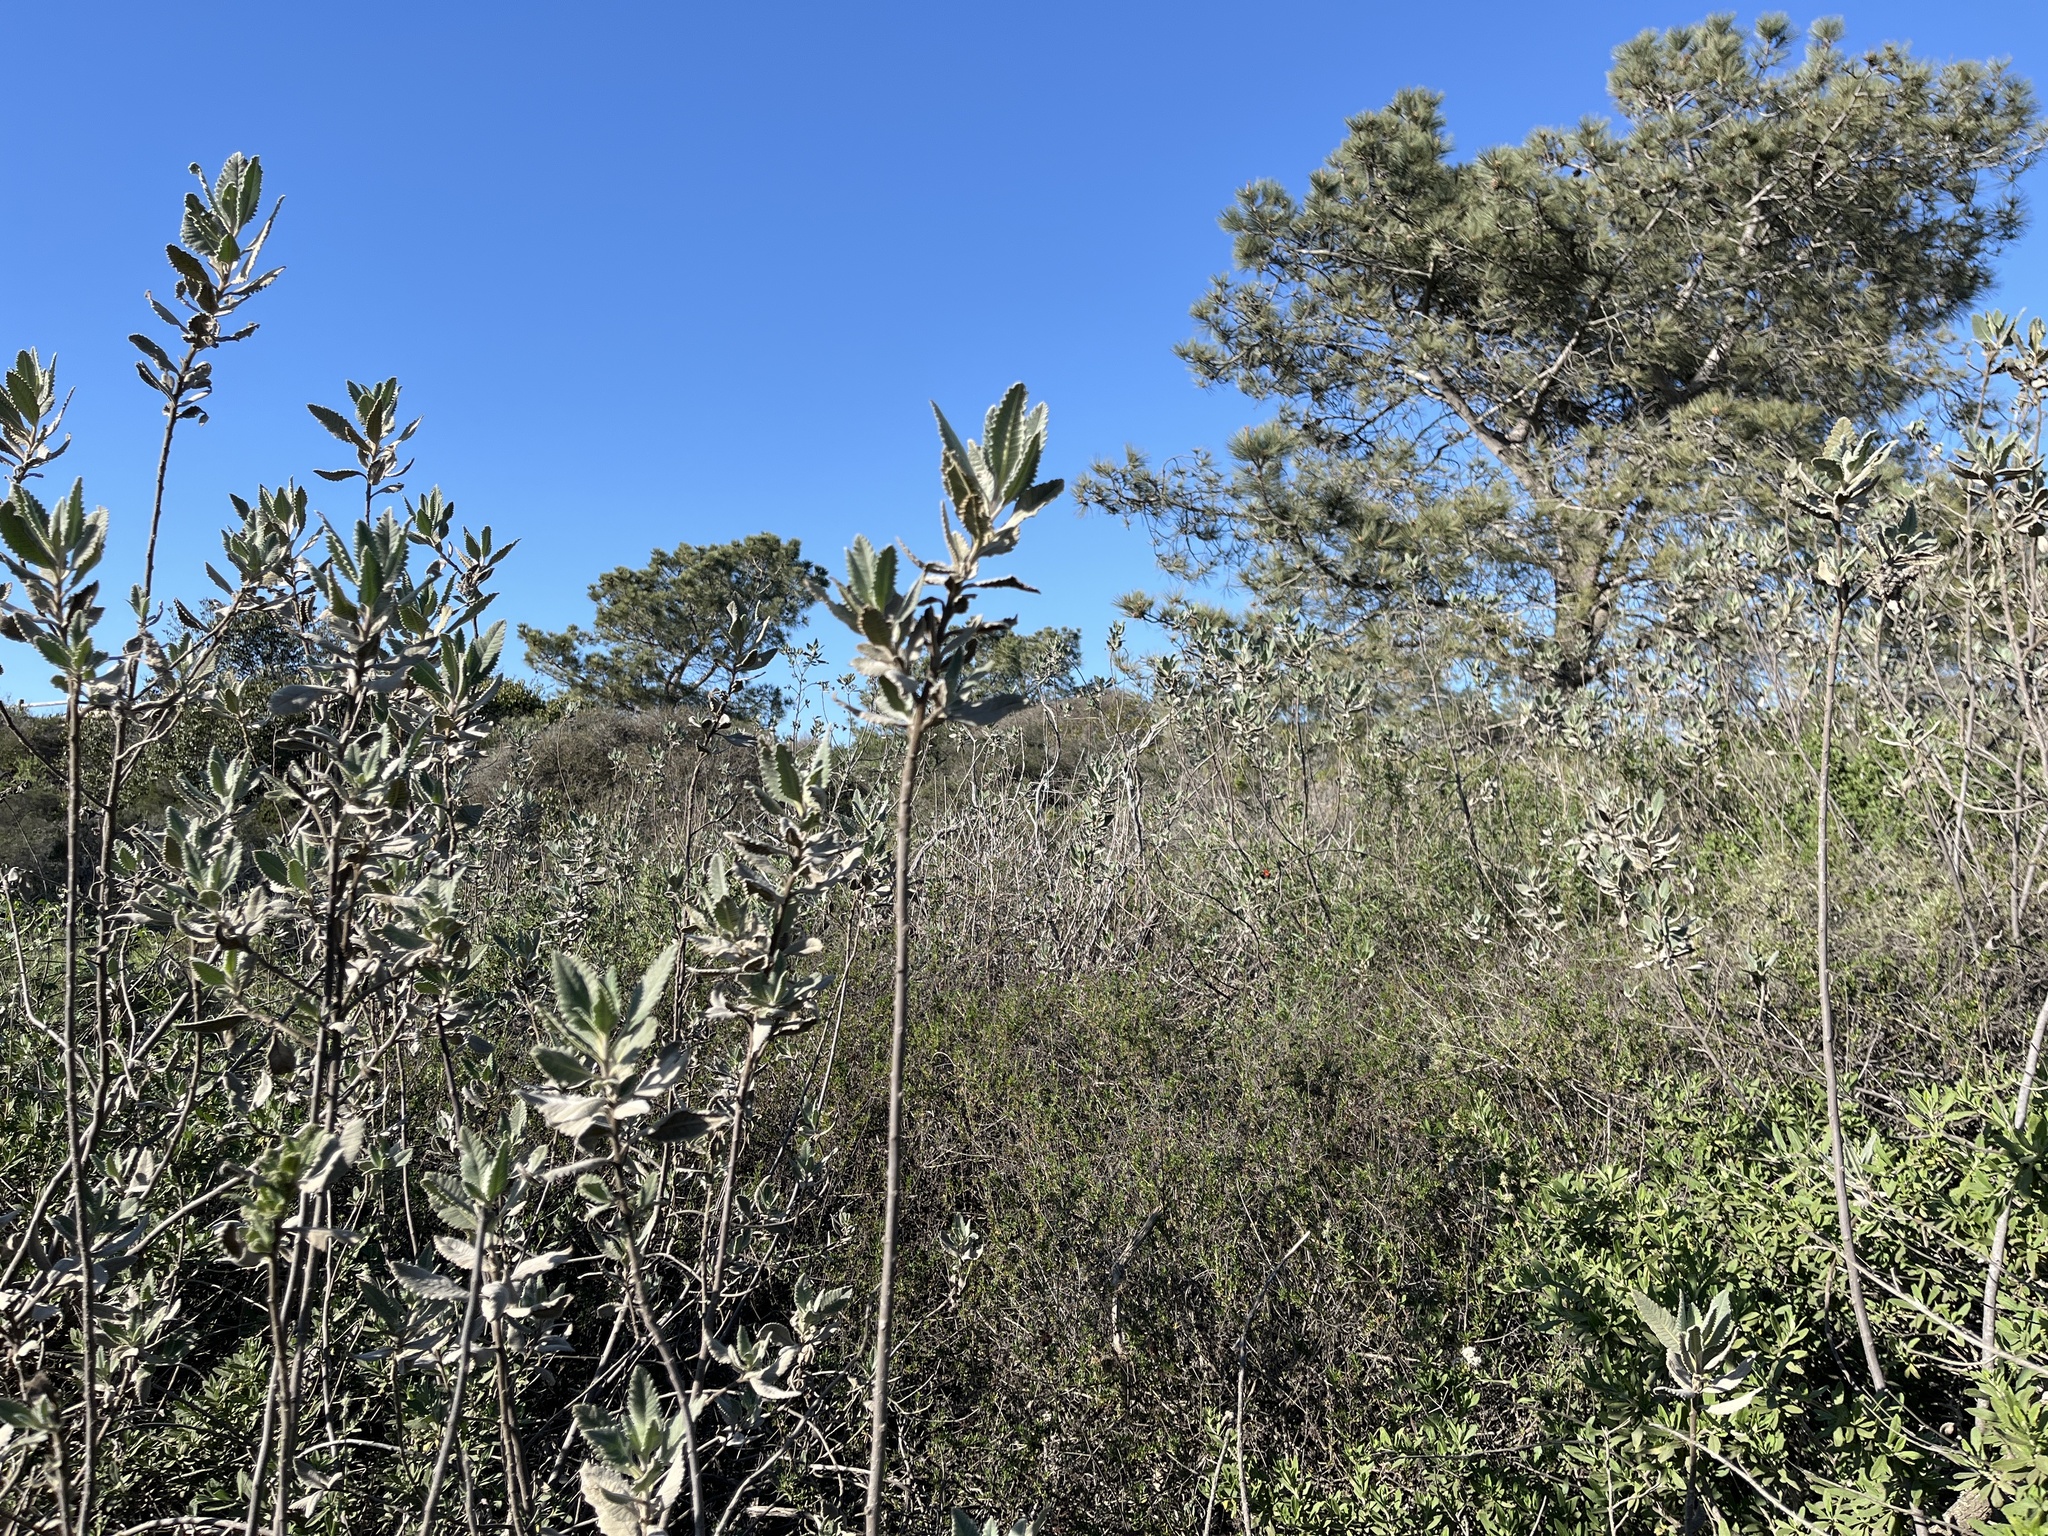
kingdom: Plantae
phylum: Tracheophyta
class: Magnoliopsida
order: Boraginales
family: Namaceae
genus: Eriodictyon
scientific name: Eriodictyon crassifolium
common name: Thick-leaf yerba-santa
